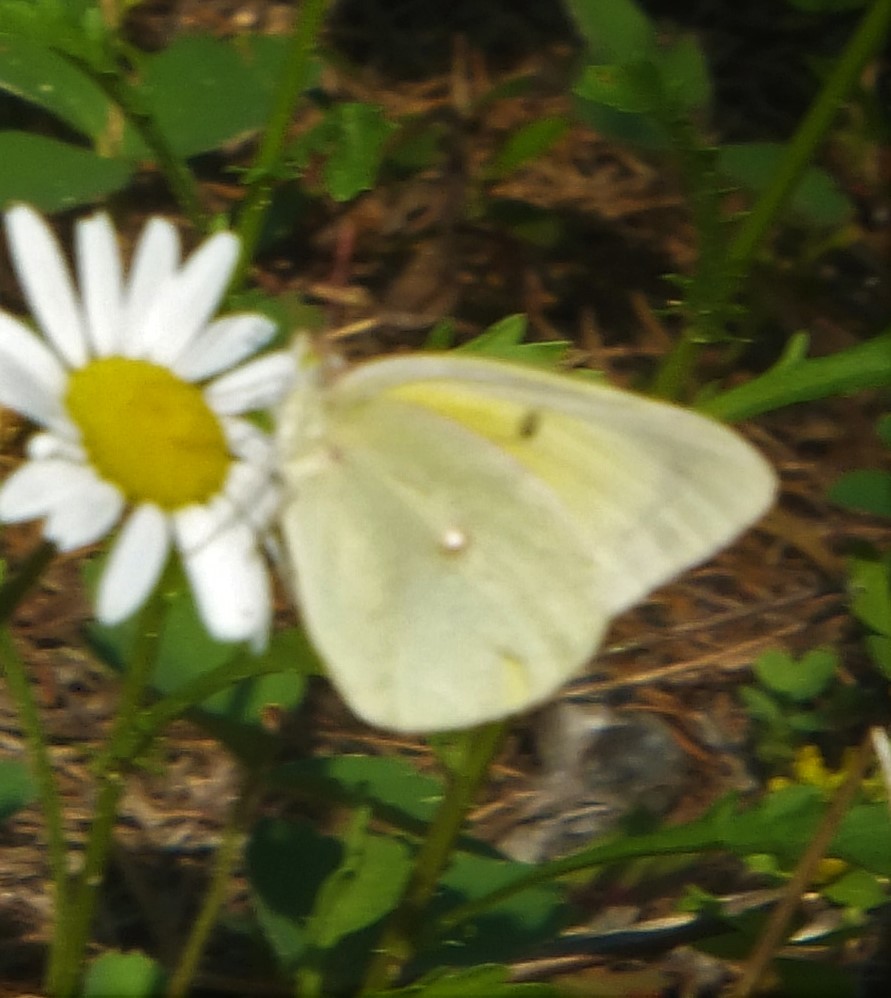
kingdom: Animalia
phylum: Arthropoda
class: Insecta
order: Lepidoptera
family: Pieridae
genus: Colias
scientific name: Colias alexandra
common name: Alexandra sulphur
